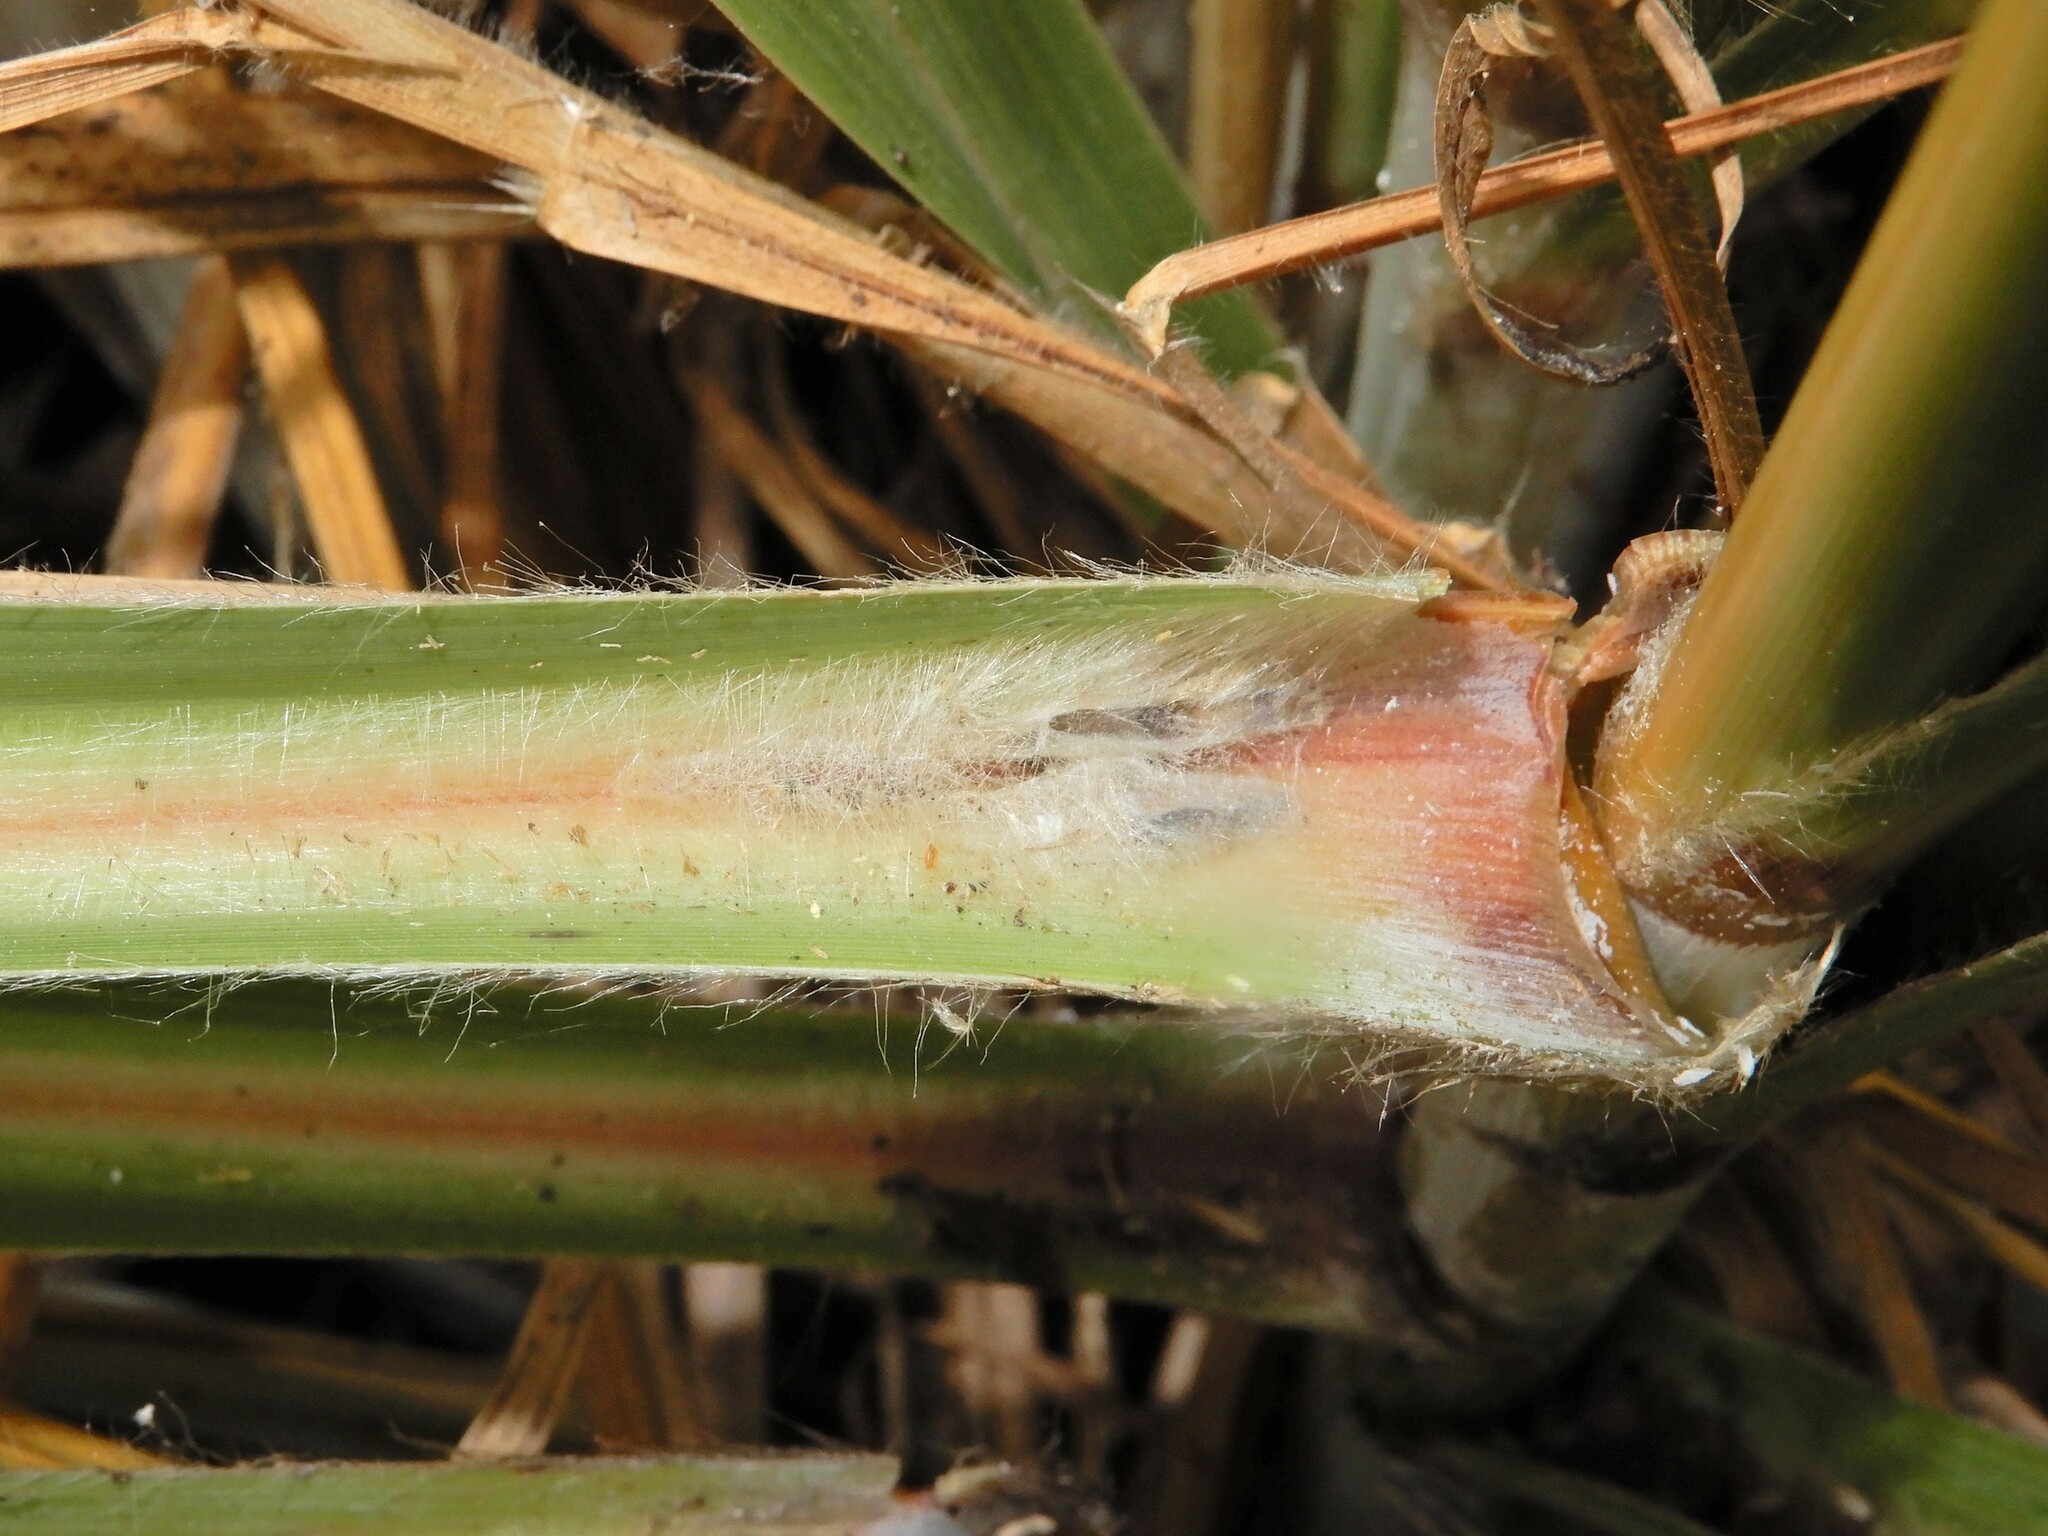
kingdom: Plantae
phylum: Tracheophyta
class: Liliopsida
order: Poales
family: Poaceae
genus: Austroderia
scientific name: Austroderia toetoe
